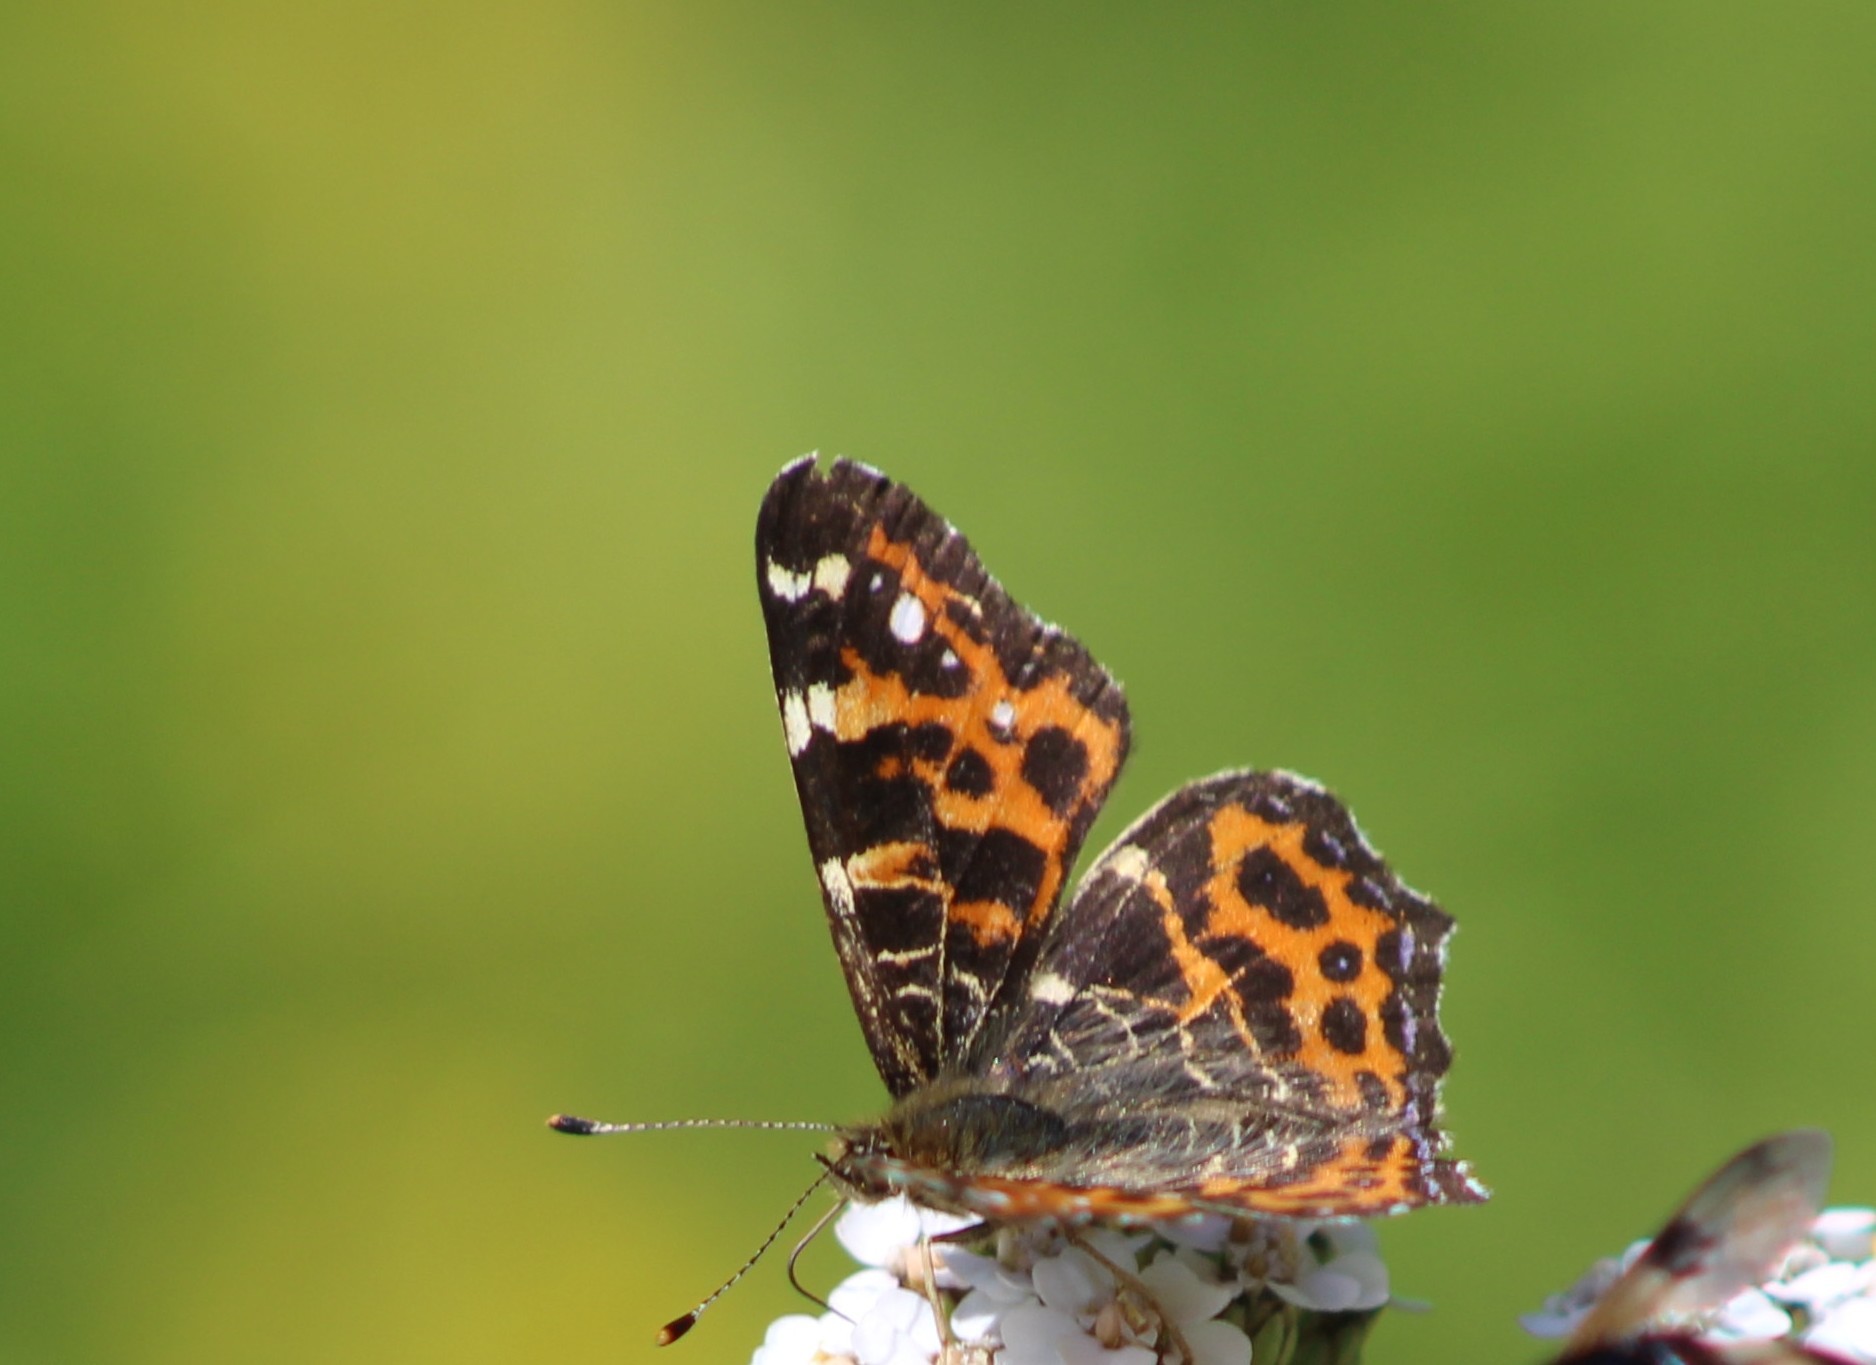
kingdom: Animalia
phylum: Arthropoda
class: Insecta
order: Lepidoptera
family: Nymphalidae
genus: Araschnia
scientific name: Araschnia levana
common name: Map butterfly
